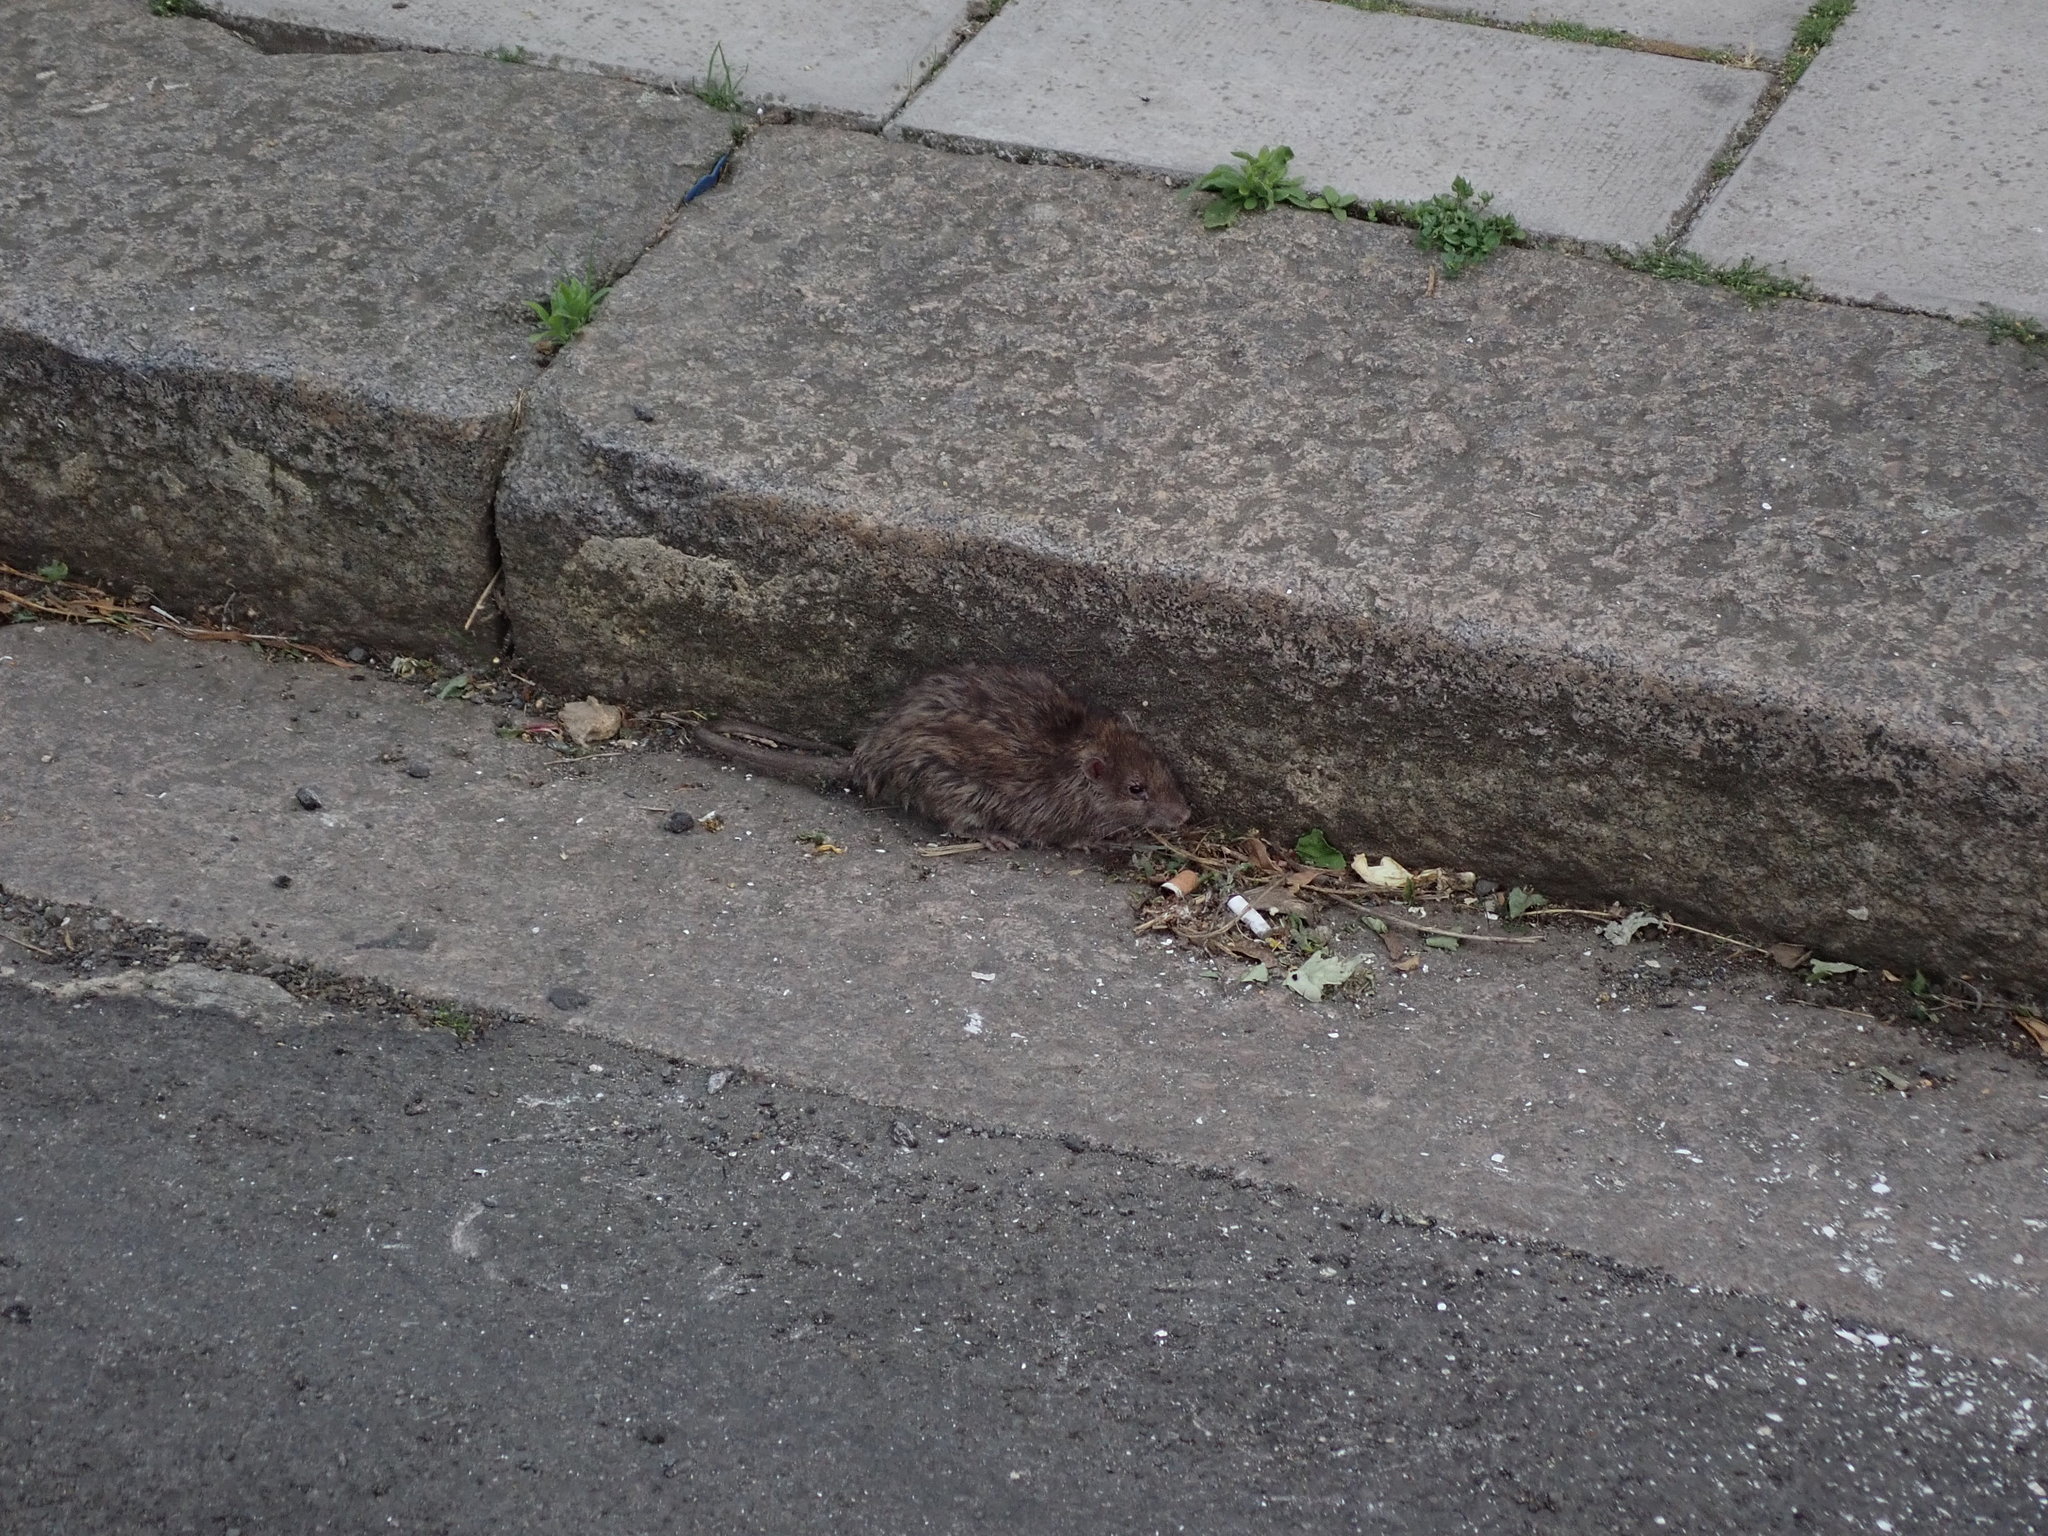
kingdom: Animalia
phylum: Chordata
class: Mammalia
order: Rodentia
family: Muridae
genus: Rattus
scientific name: Rattus norvegicus
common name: Brown rat
